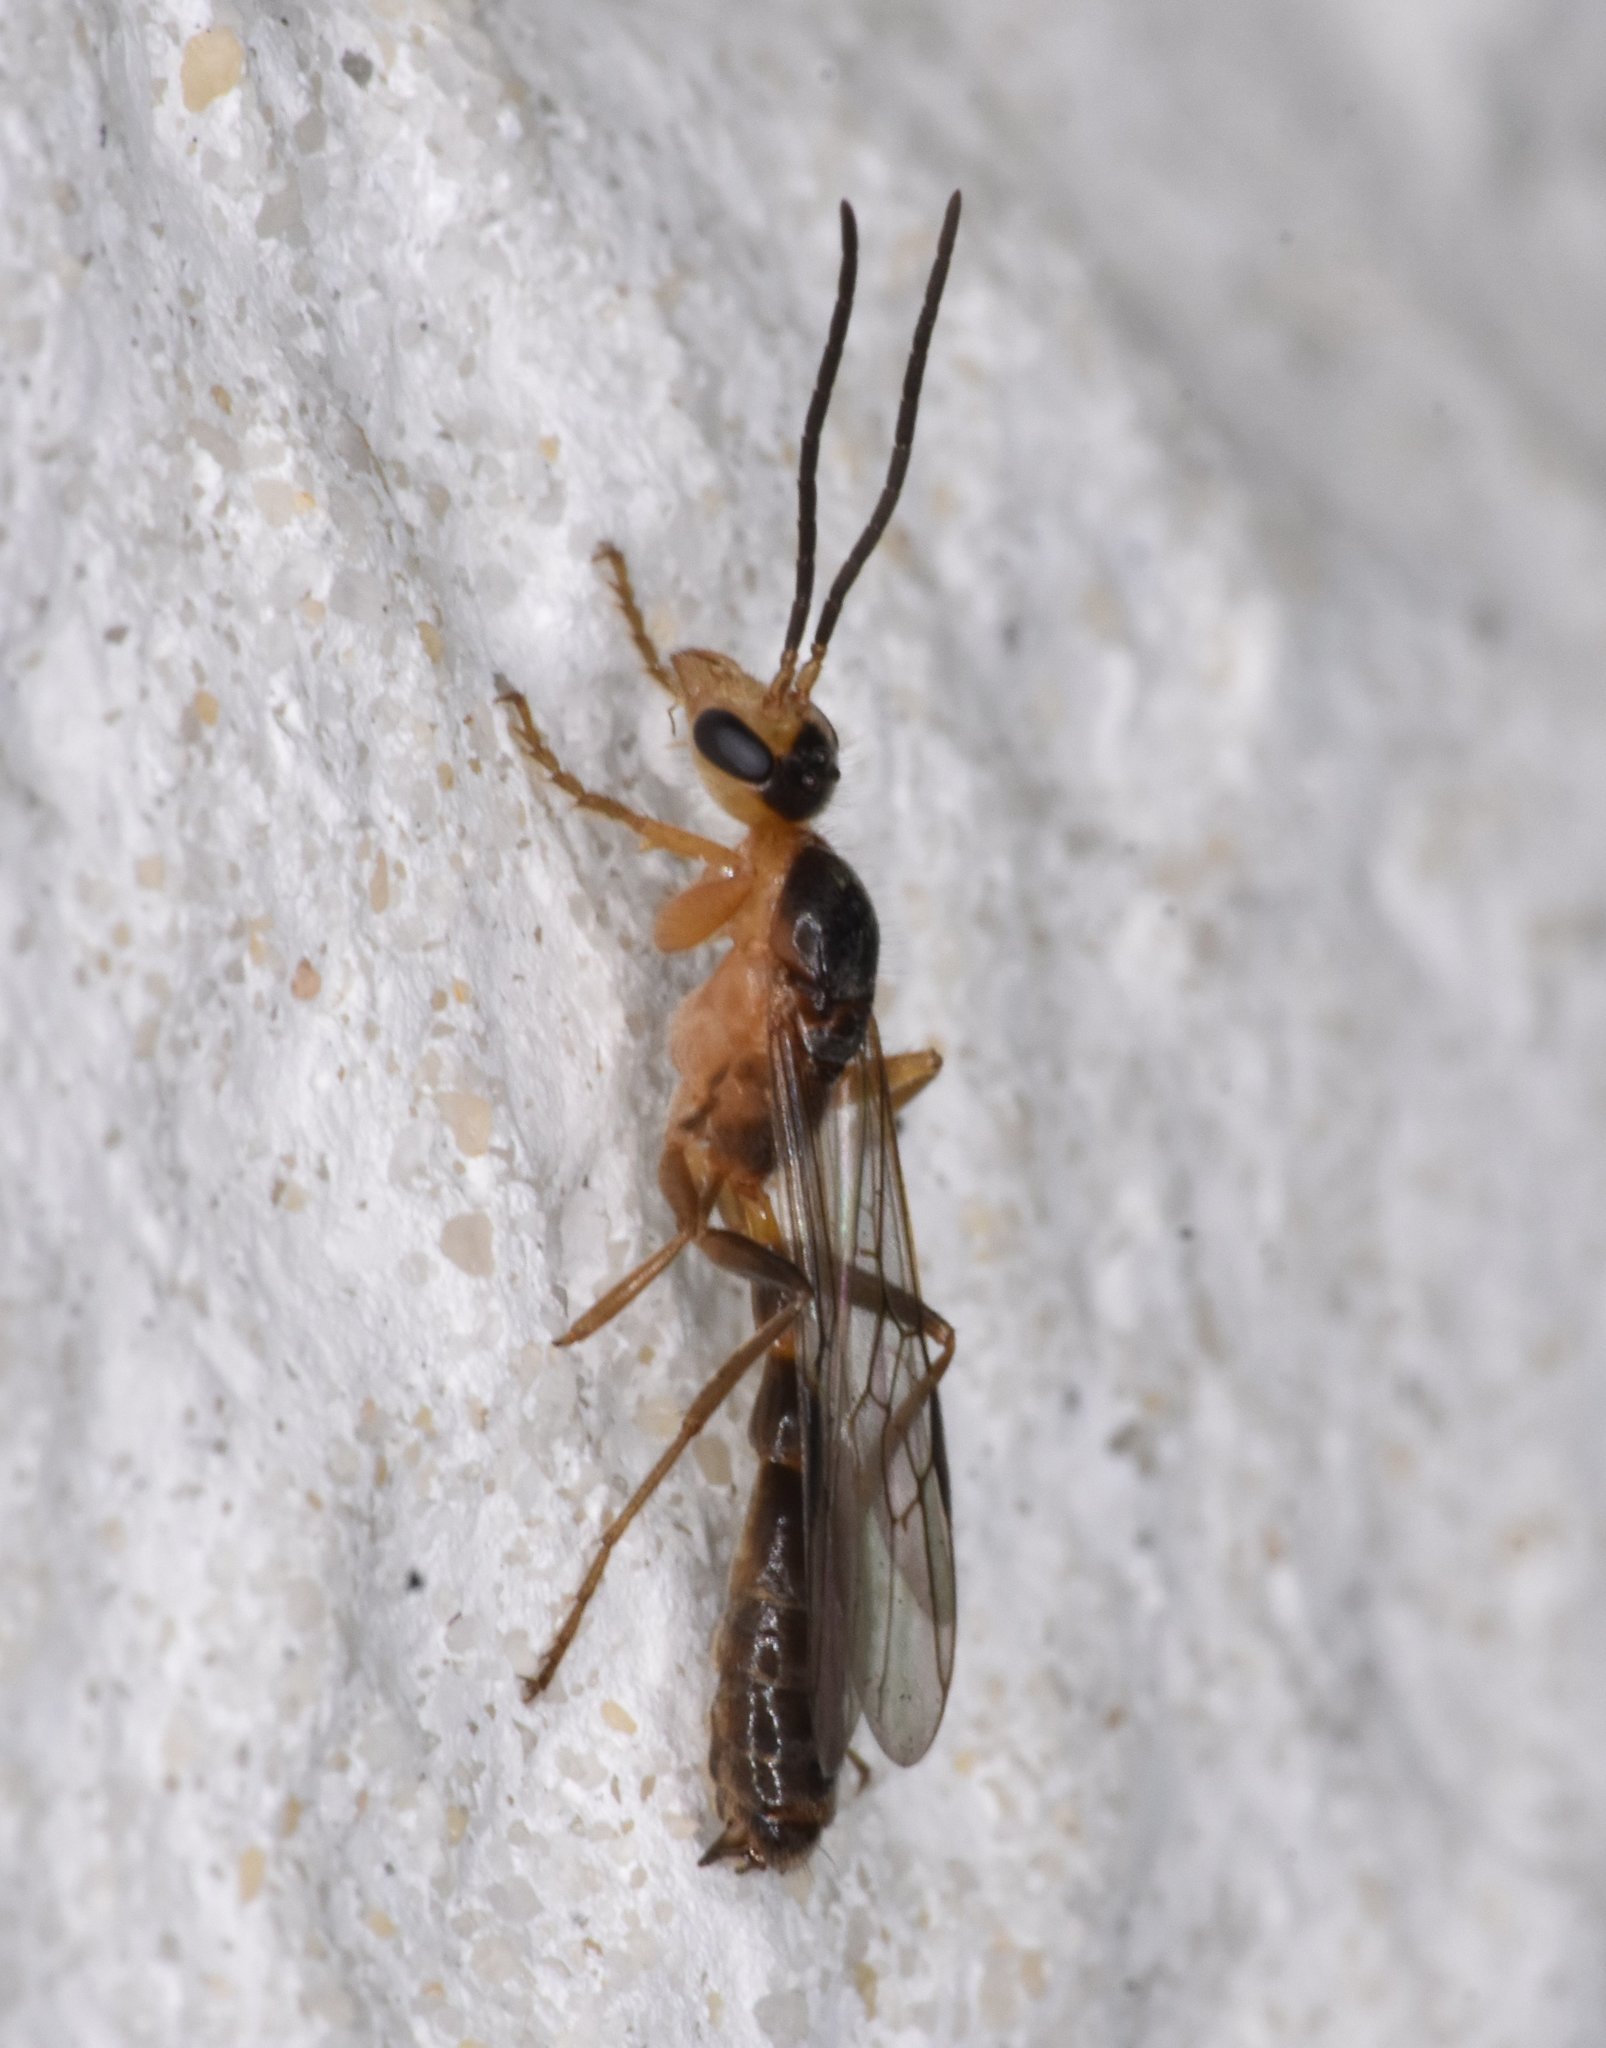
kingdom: Animalia
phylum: Arthropoda
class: Insecta
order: Hymenoptera
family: Formicidae
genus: Pseudomyrmex
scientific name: Pseudomyrmex gracilis
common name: Graceful twig ant
